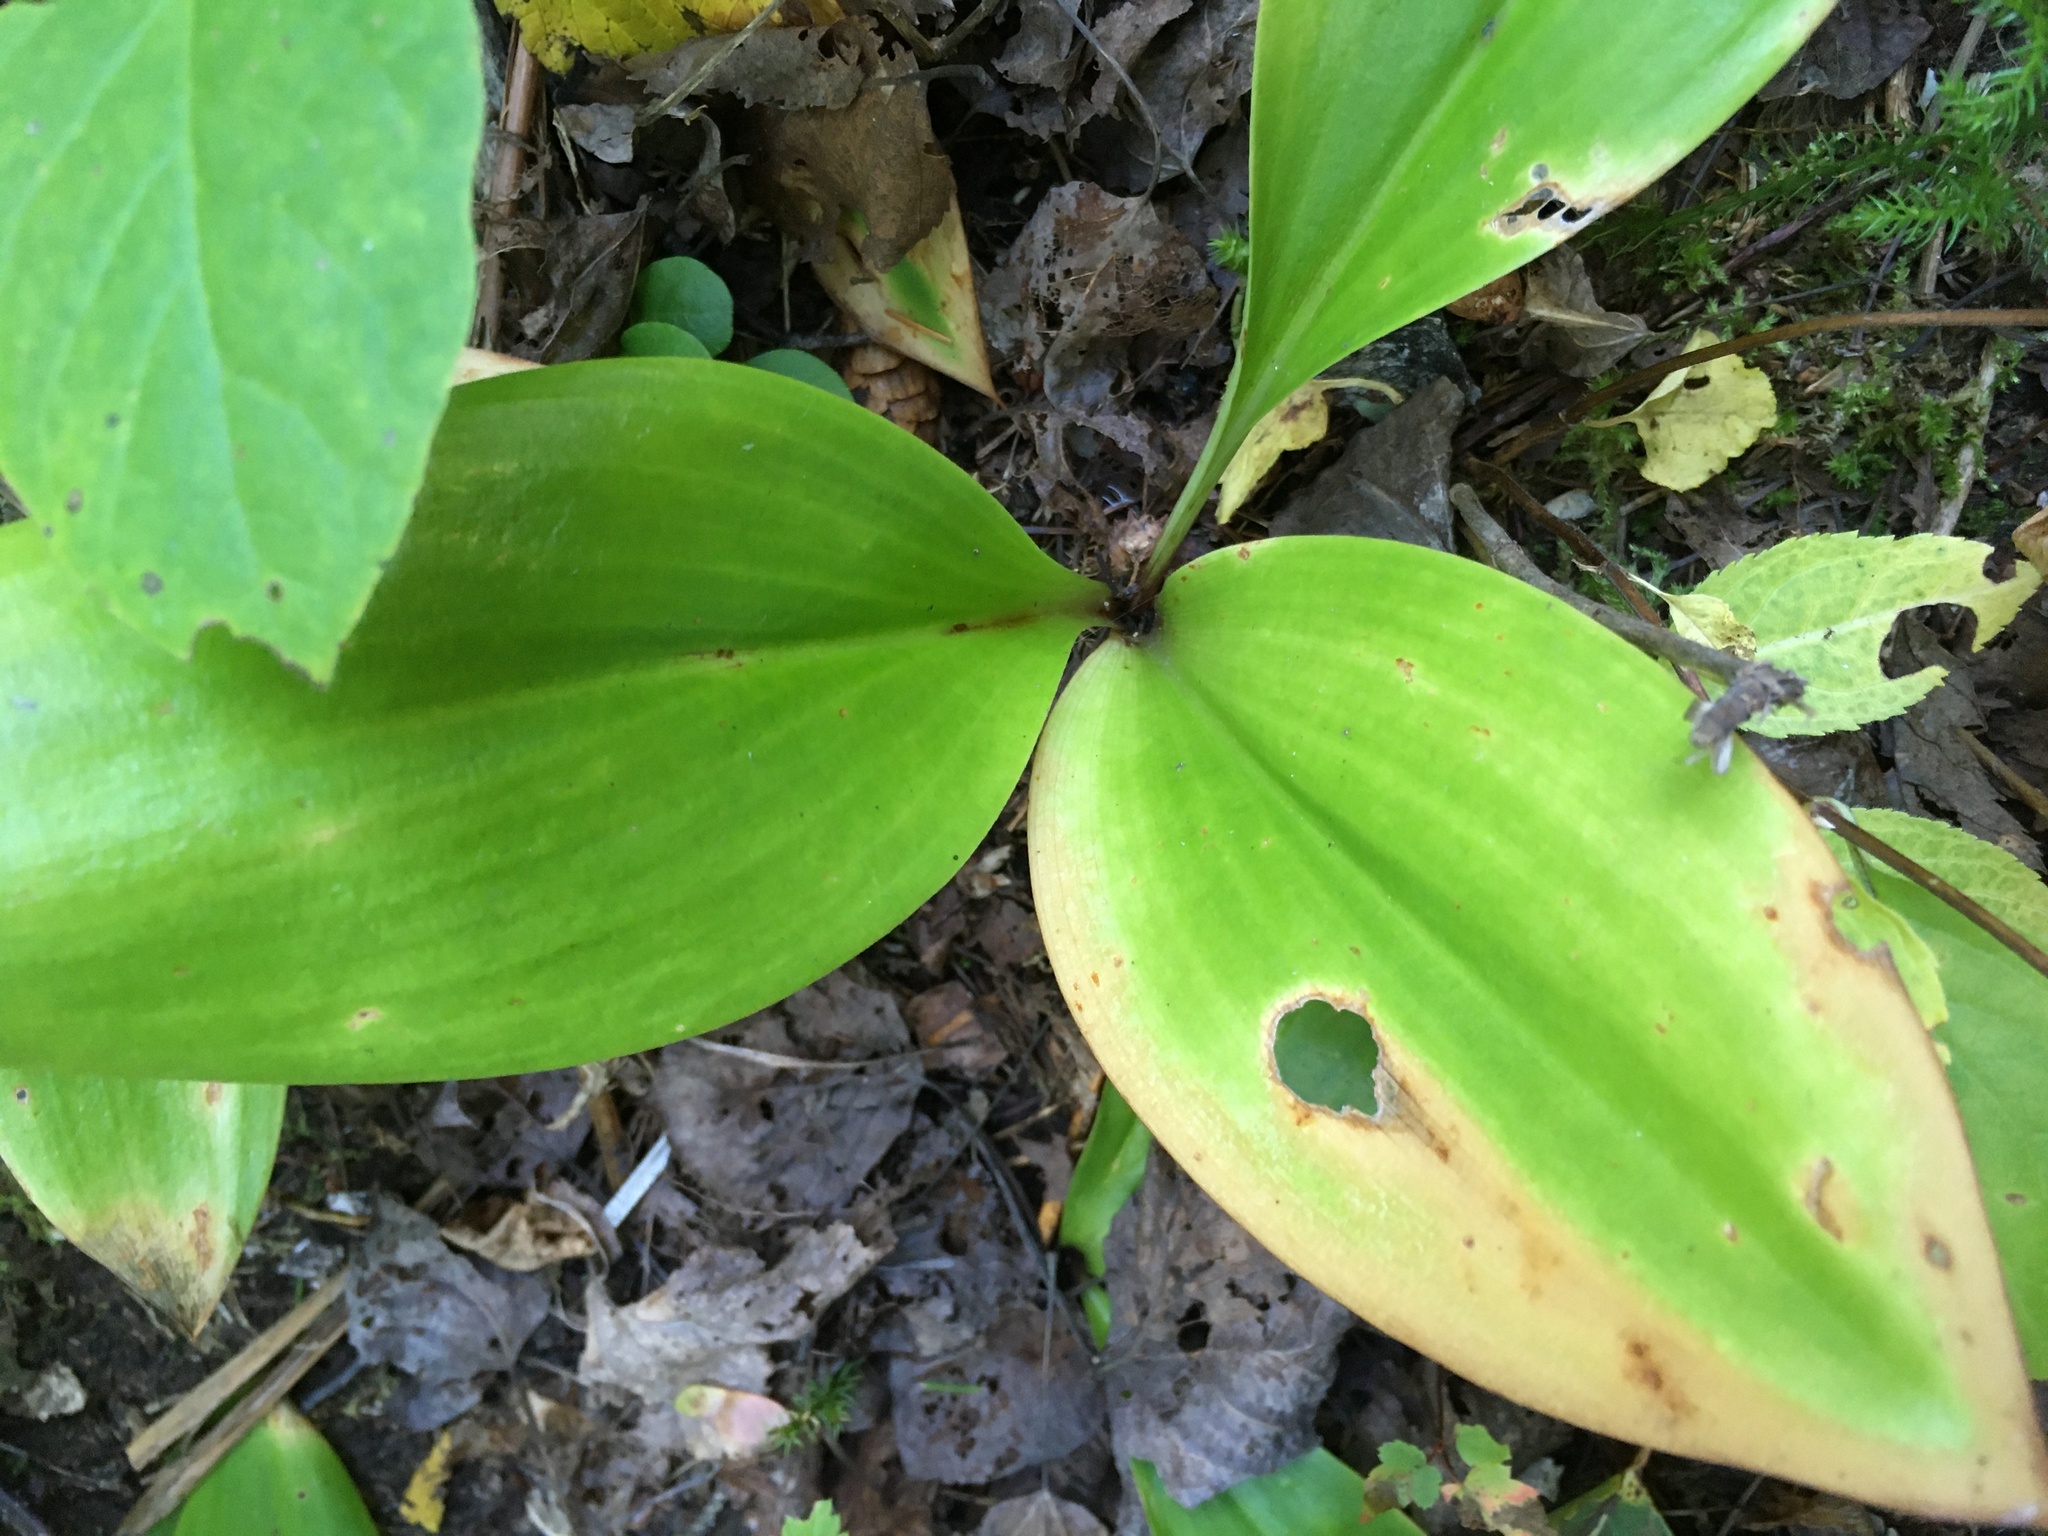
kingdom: Plantae
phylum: Tracheophyta
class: Liliopsida
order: Liliales
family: Liliaceae
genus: Clintonia
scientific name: Clintonia borealis
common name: Yellow clintonia
